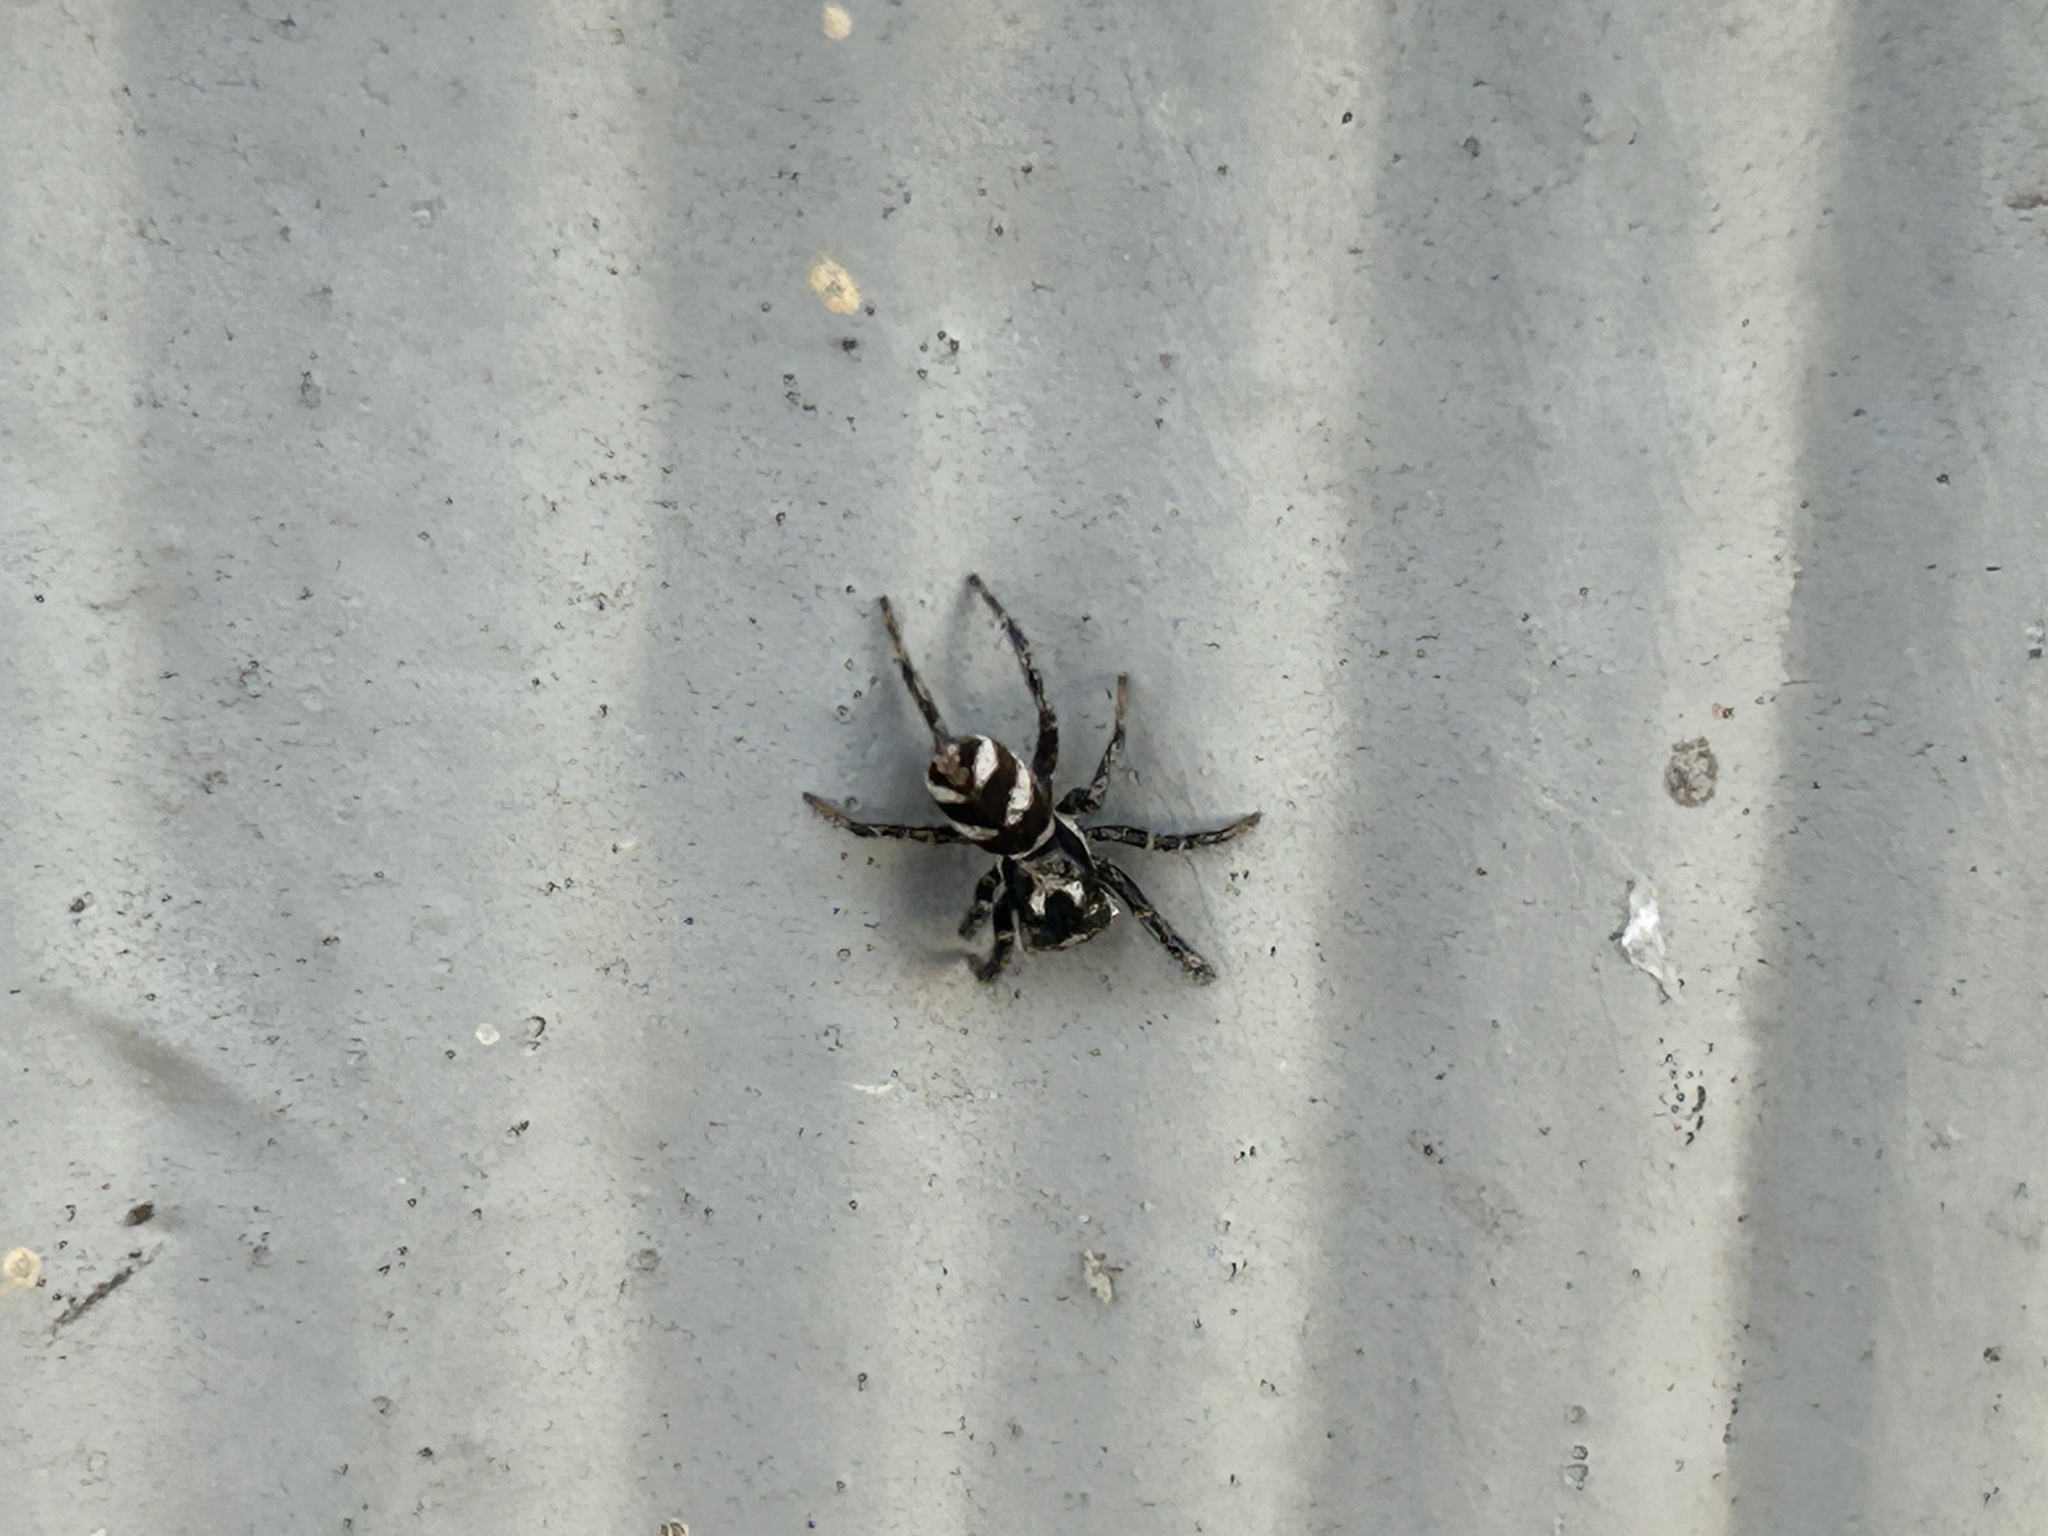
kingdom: Animalia
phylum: Arthropoda
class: Arachnida
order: Araneae
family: Salticidae
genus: Salticus
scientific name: Salticus scenicus
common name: Zebra jumper
